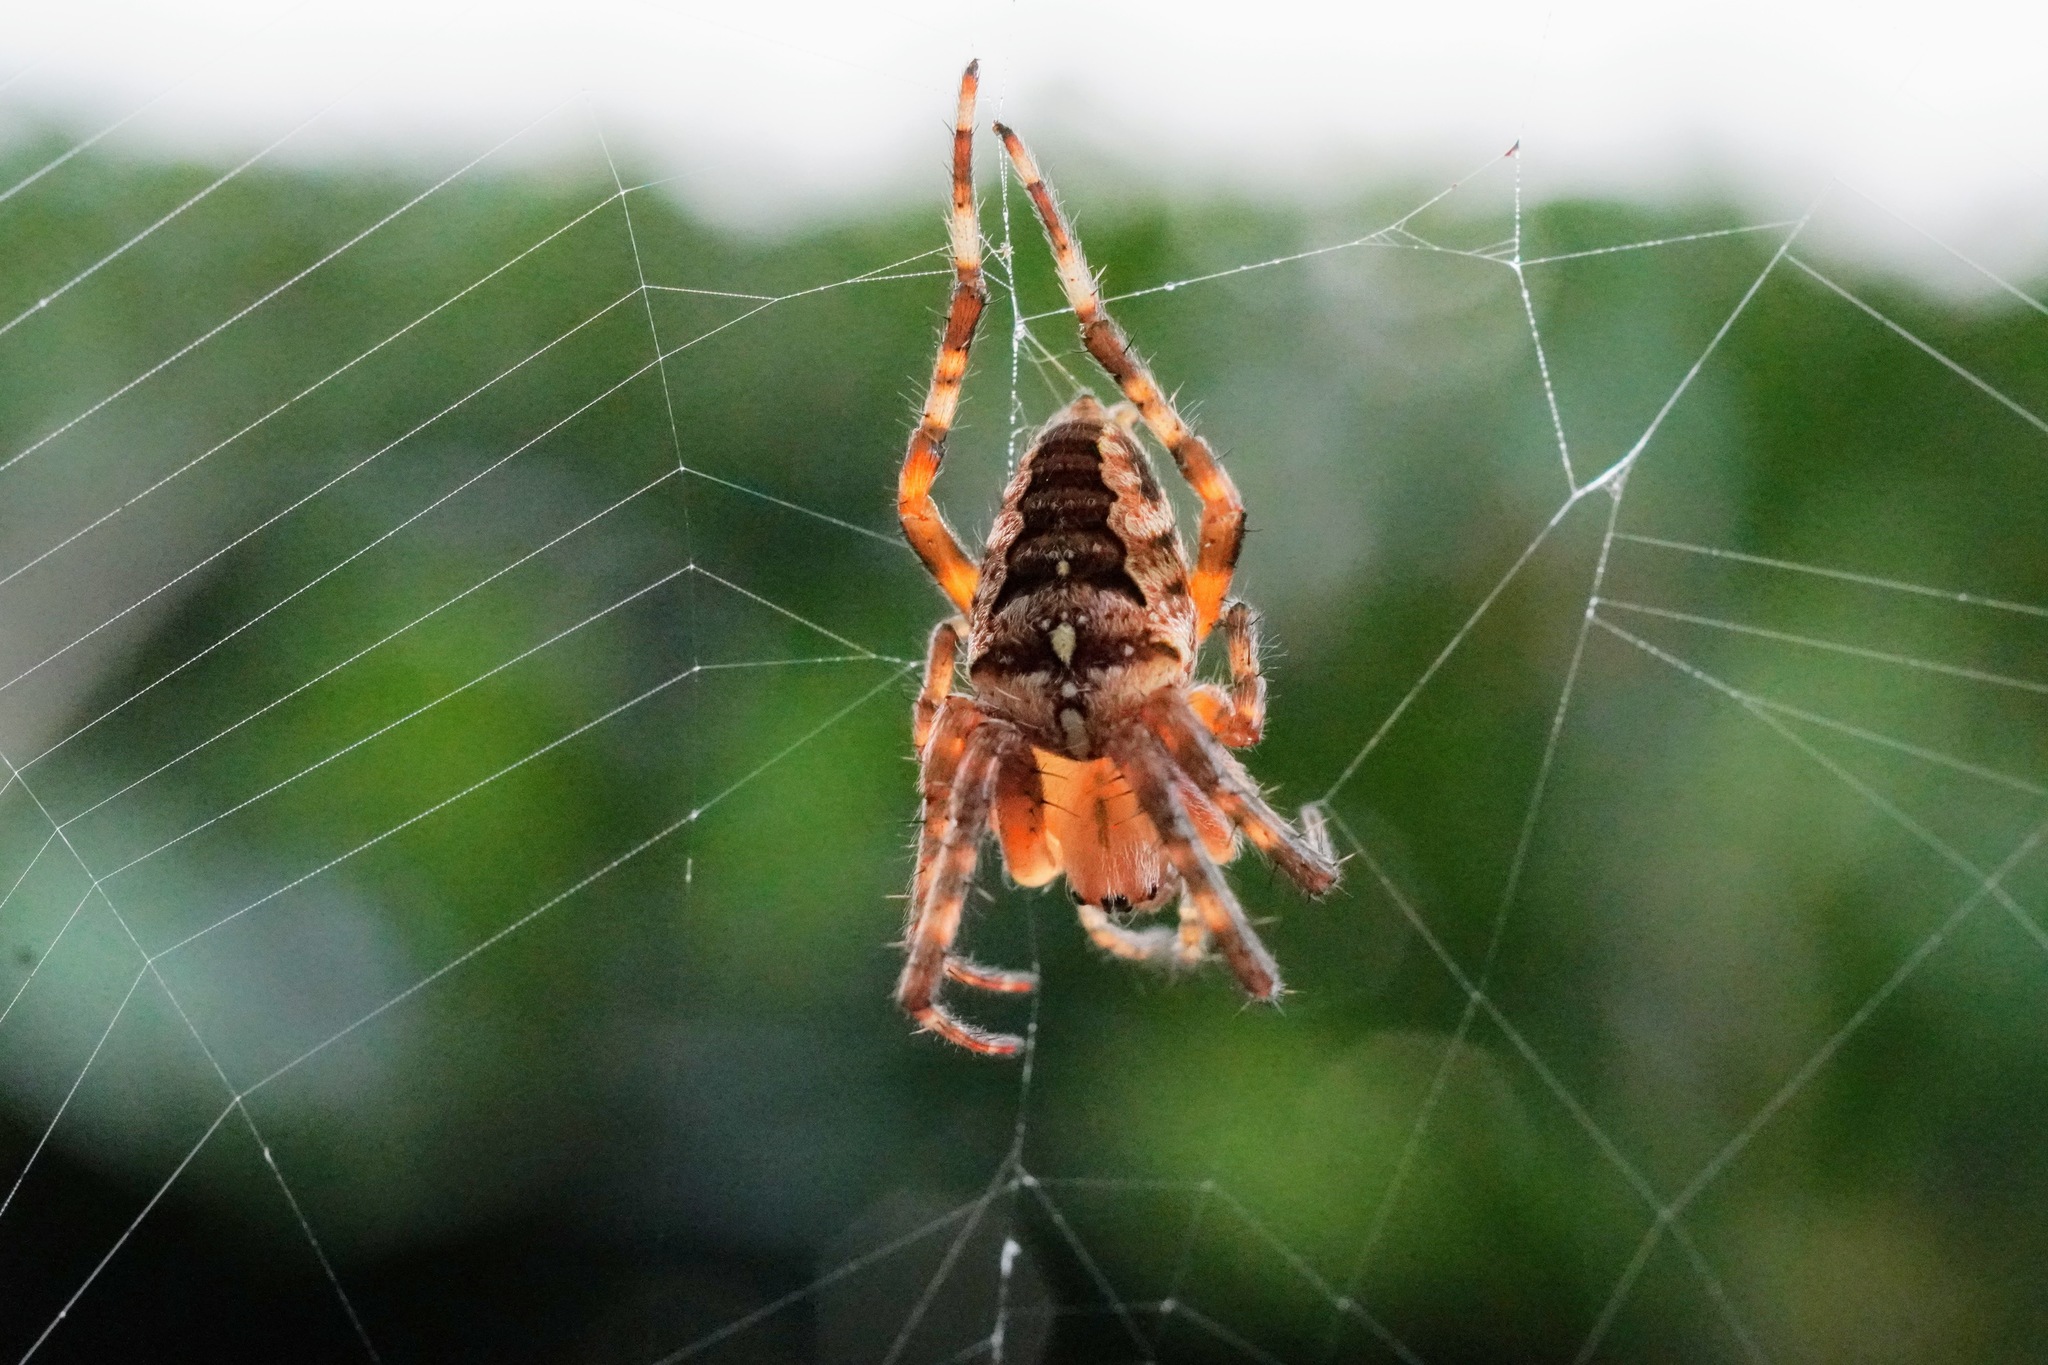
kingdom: Animalia
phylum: Arthropoda
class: Arachnida
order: Araneae
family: Araneidae
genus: Araneus
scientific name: Araneus diadematus
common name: Cross orbweaver
